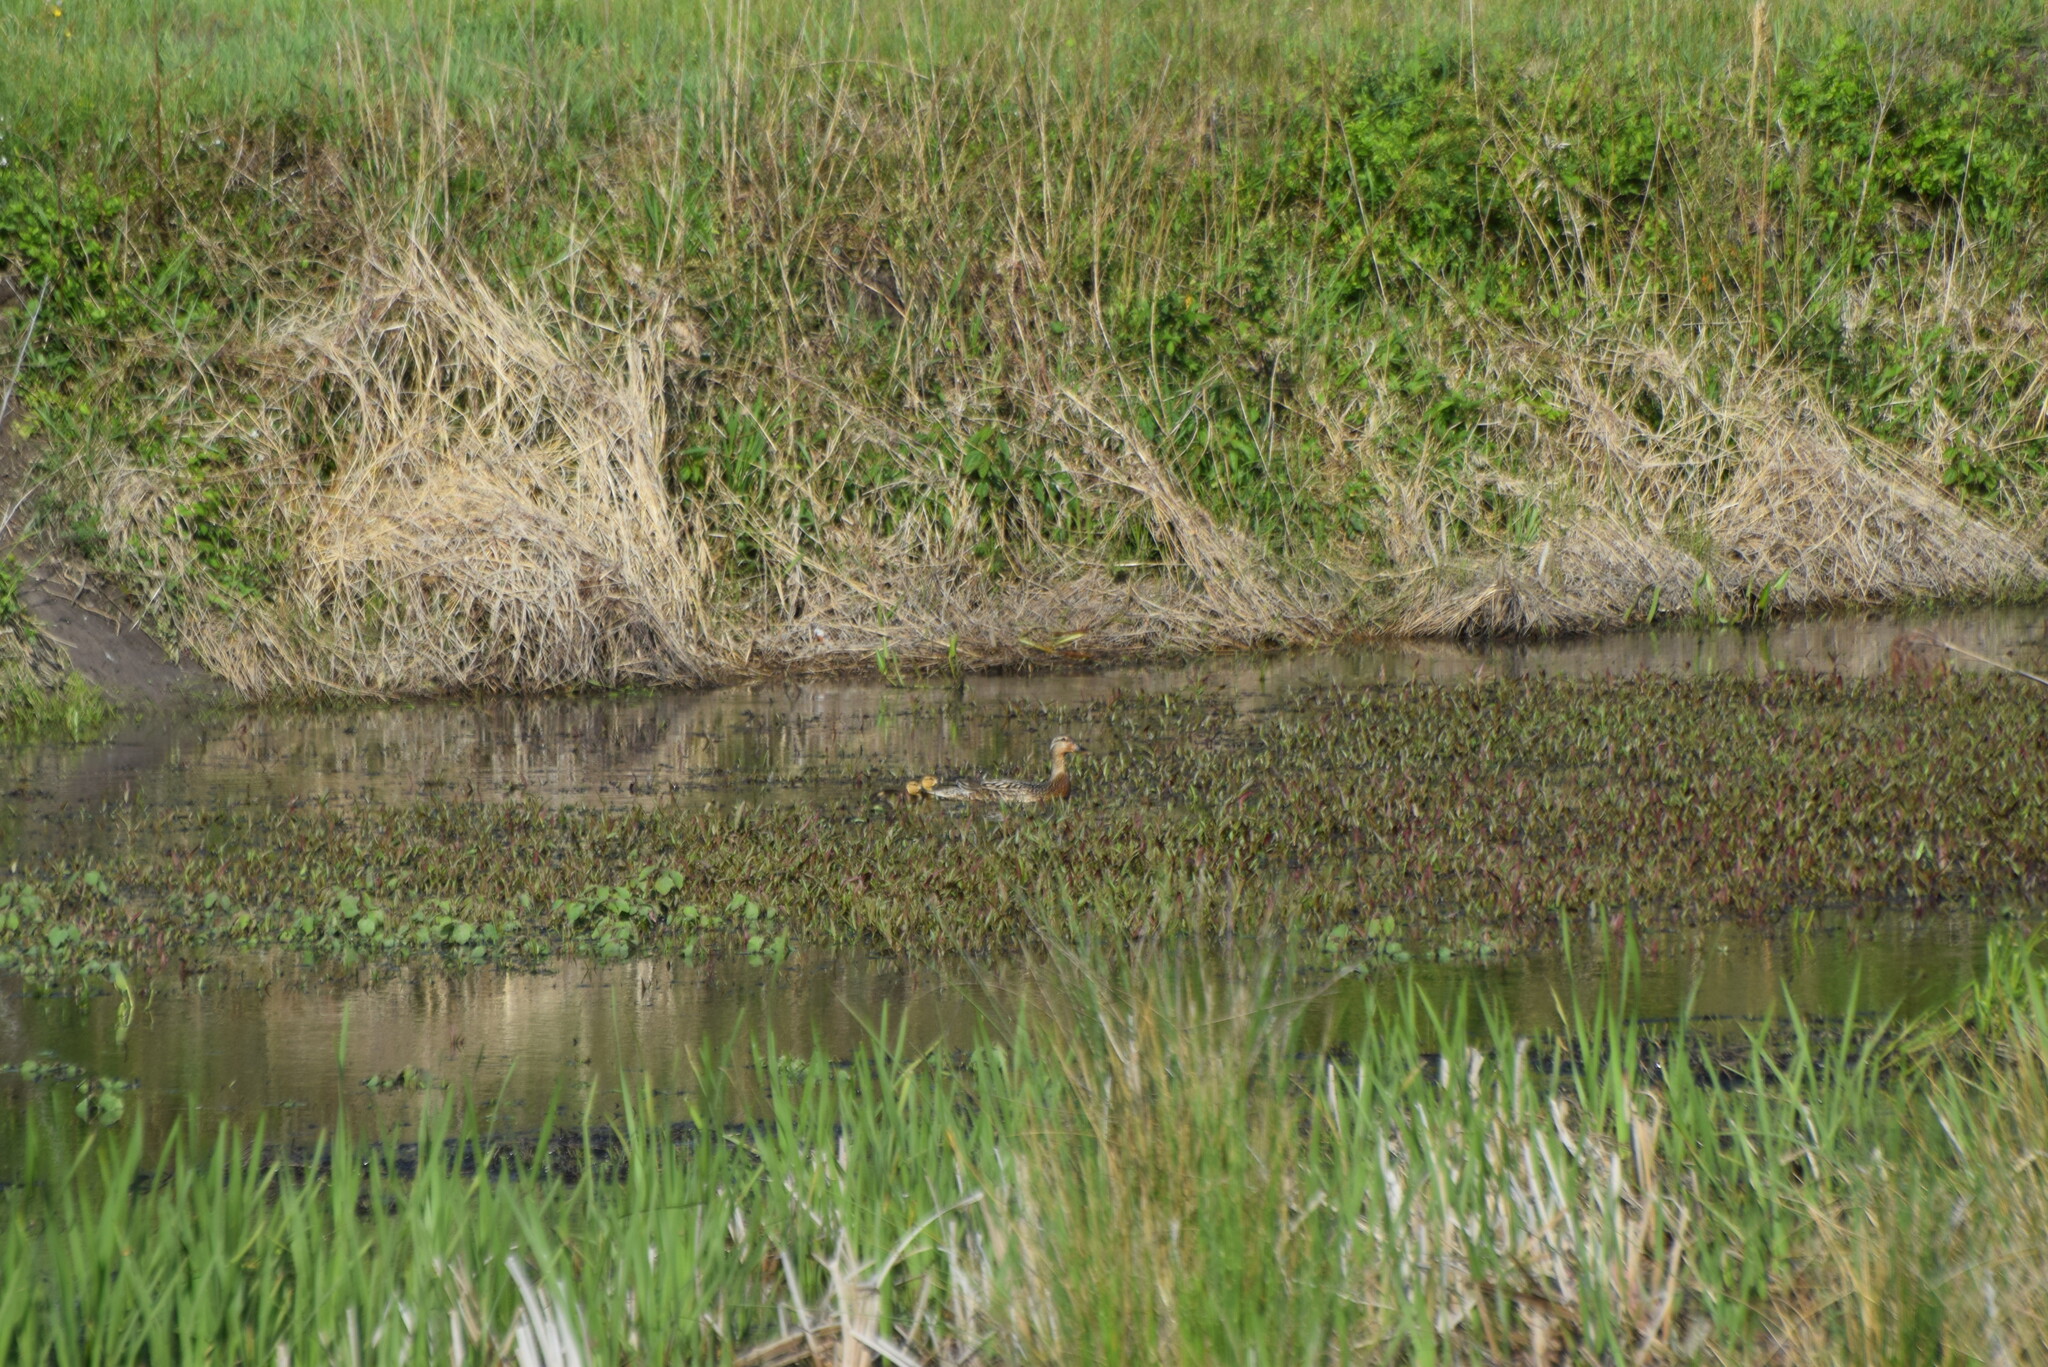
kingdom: Animalia
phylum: Chordata
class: Aves
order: Anseriformes
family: Anatidae
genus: Anas
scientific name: Anas platyrhynchos
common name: Mallard
